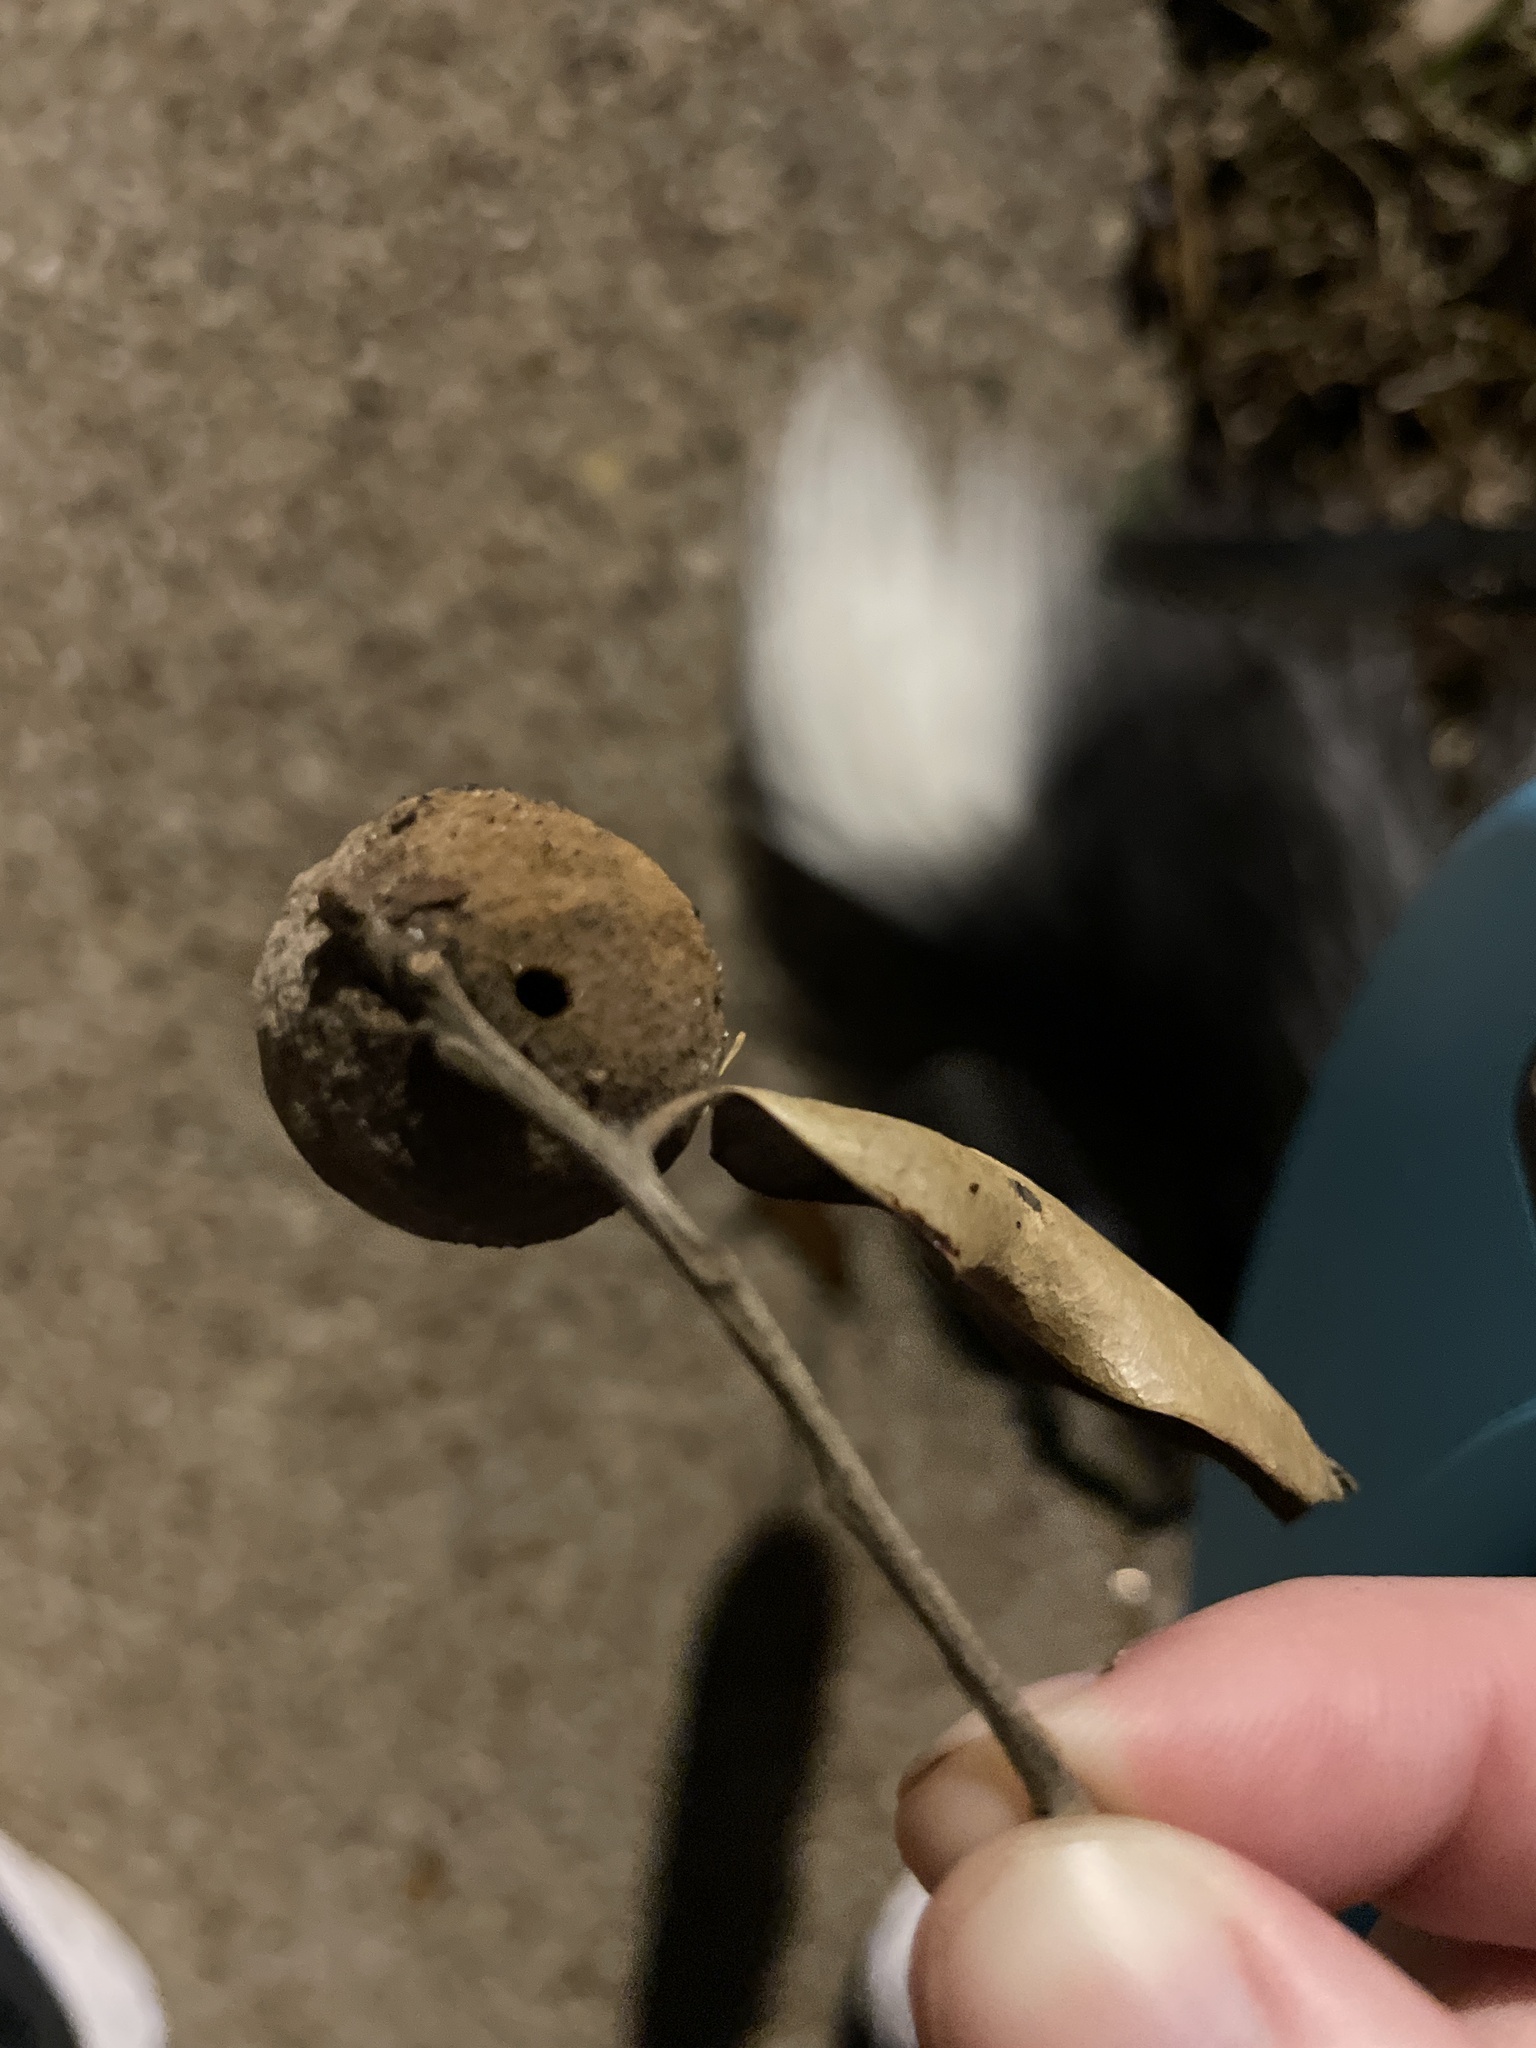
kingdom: Animalia
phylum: Arthropoda
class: Insecta
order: Hymenoptera
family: Cynipidae
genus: Disholcaspis
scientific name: Disholcaspis
